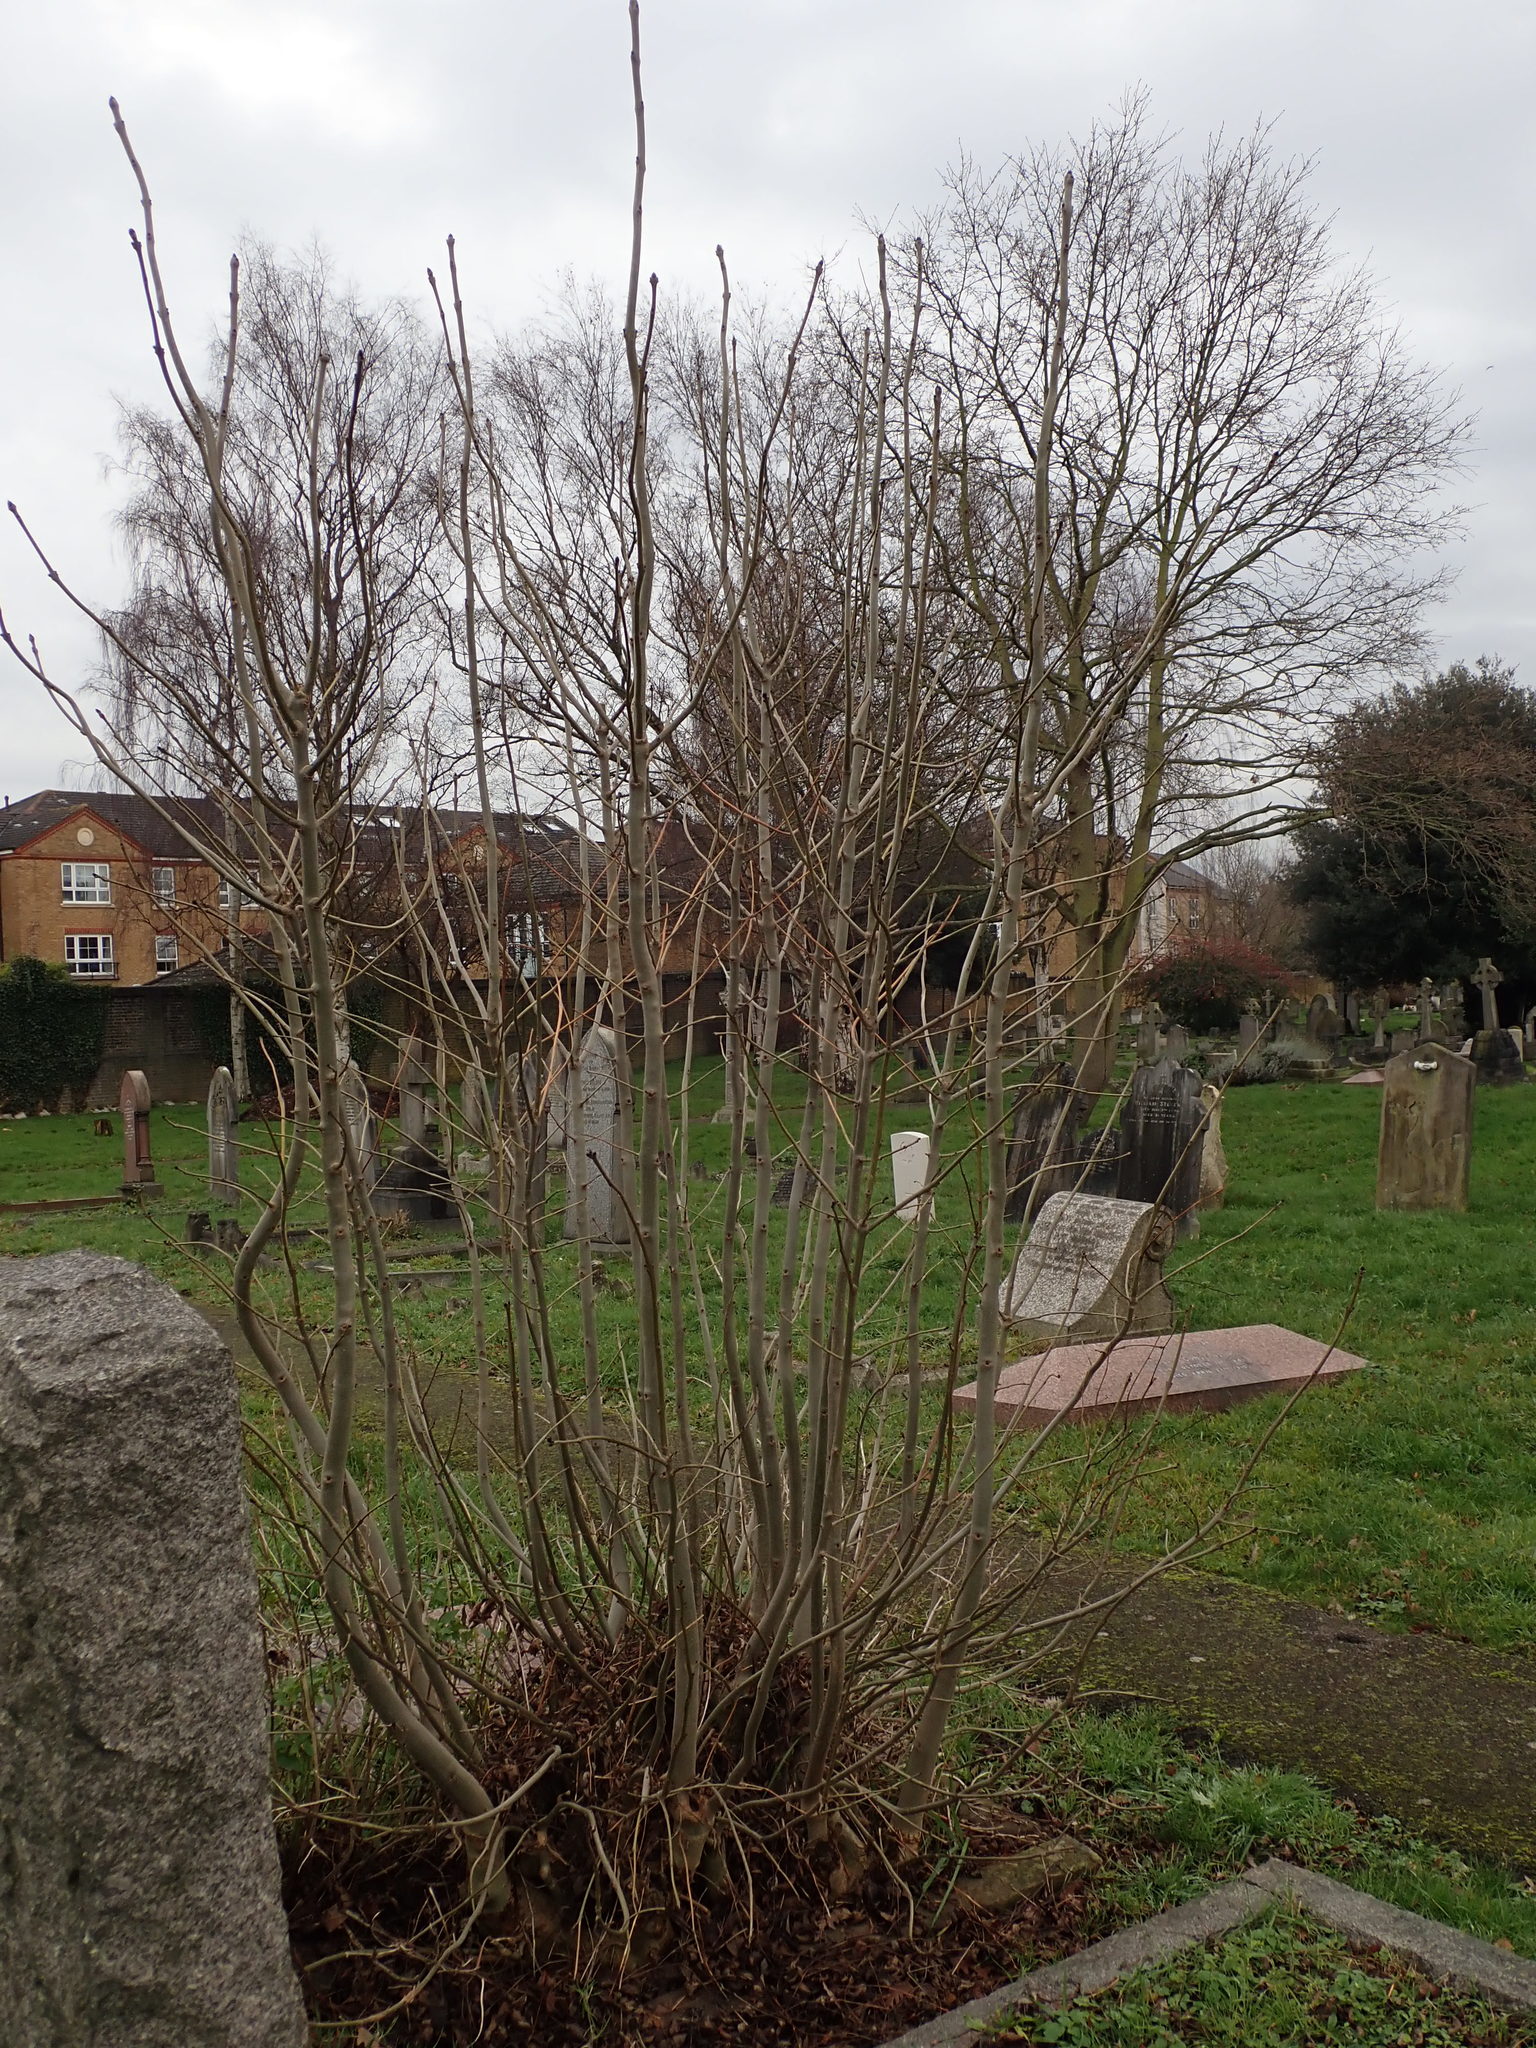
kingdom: Plantae
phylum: Tracheophyta
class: Magnoliopsida
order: Lamiales
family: Oleaceae
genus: Fraxinus
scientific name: Fraxinus excelsior
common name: European ash
